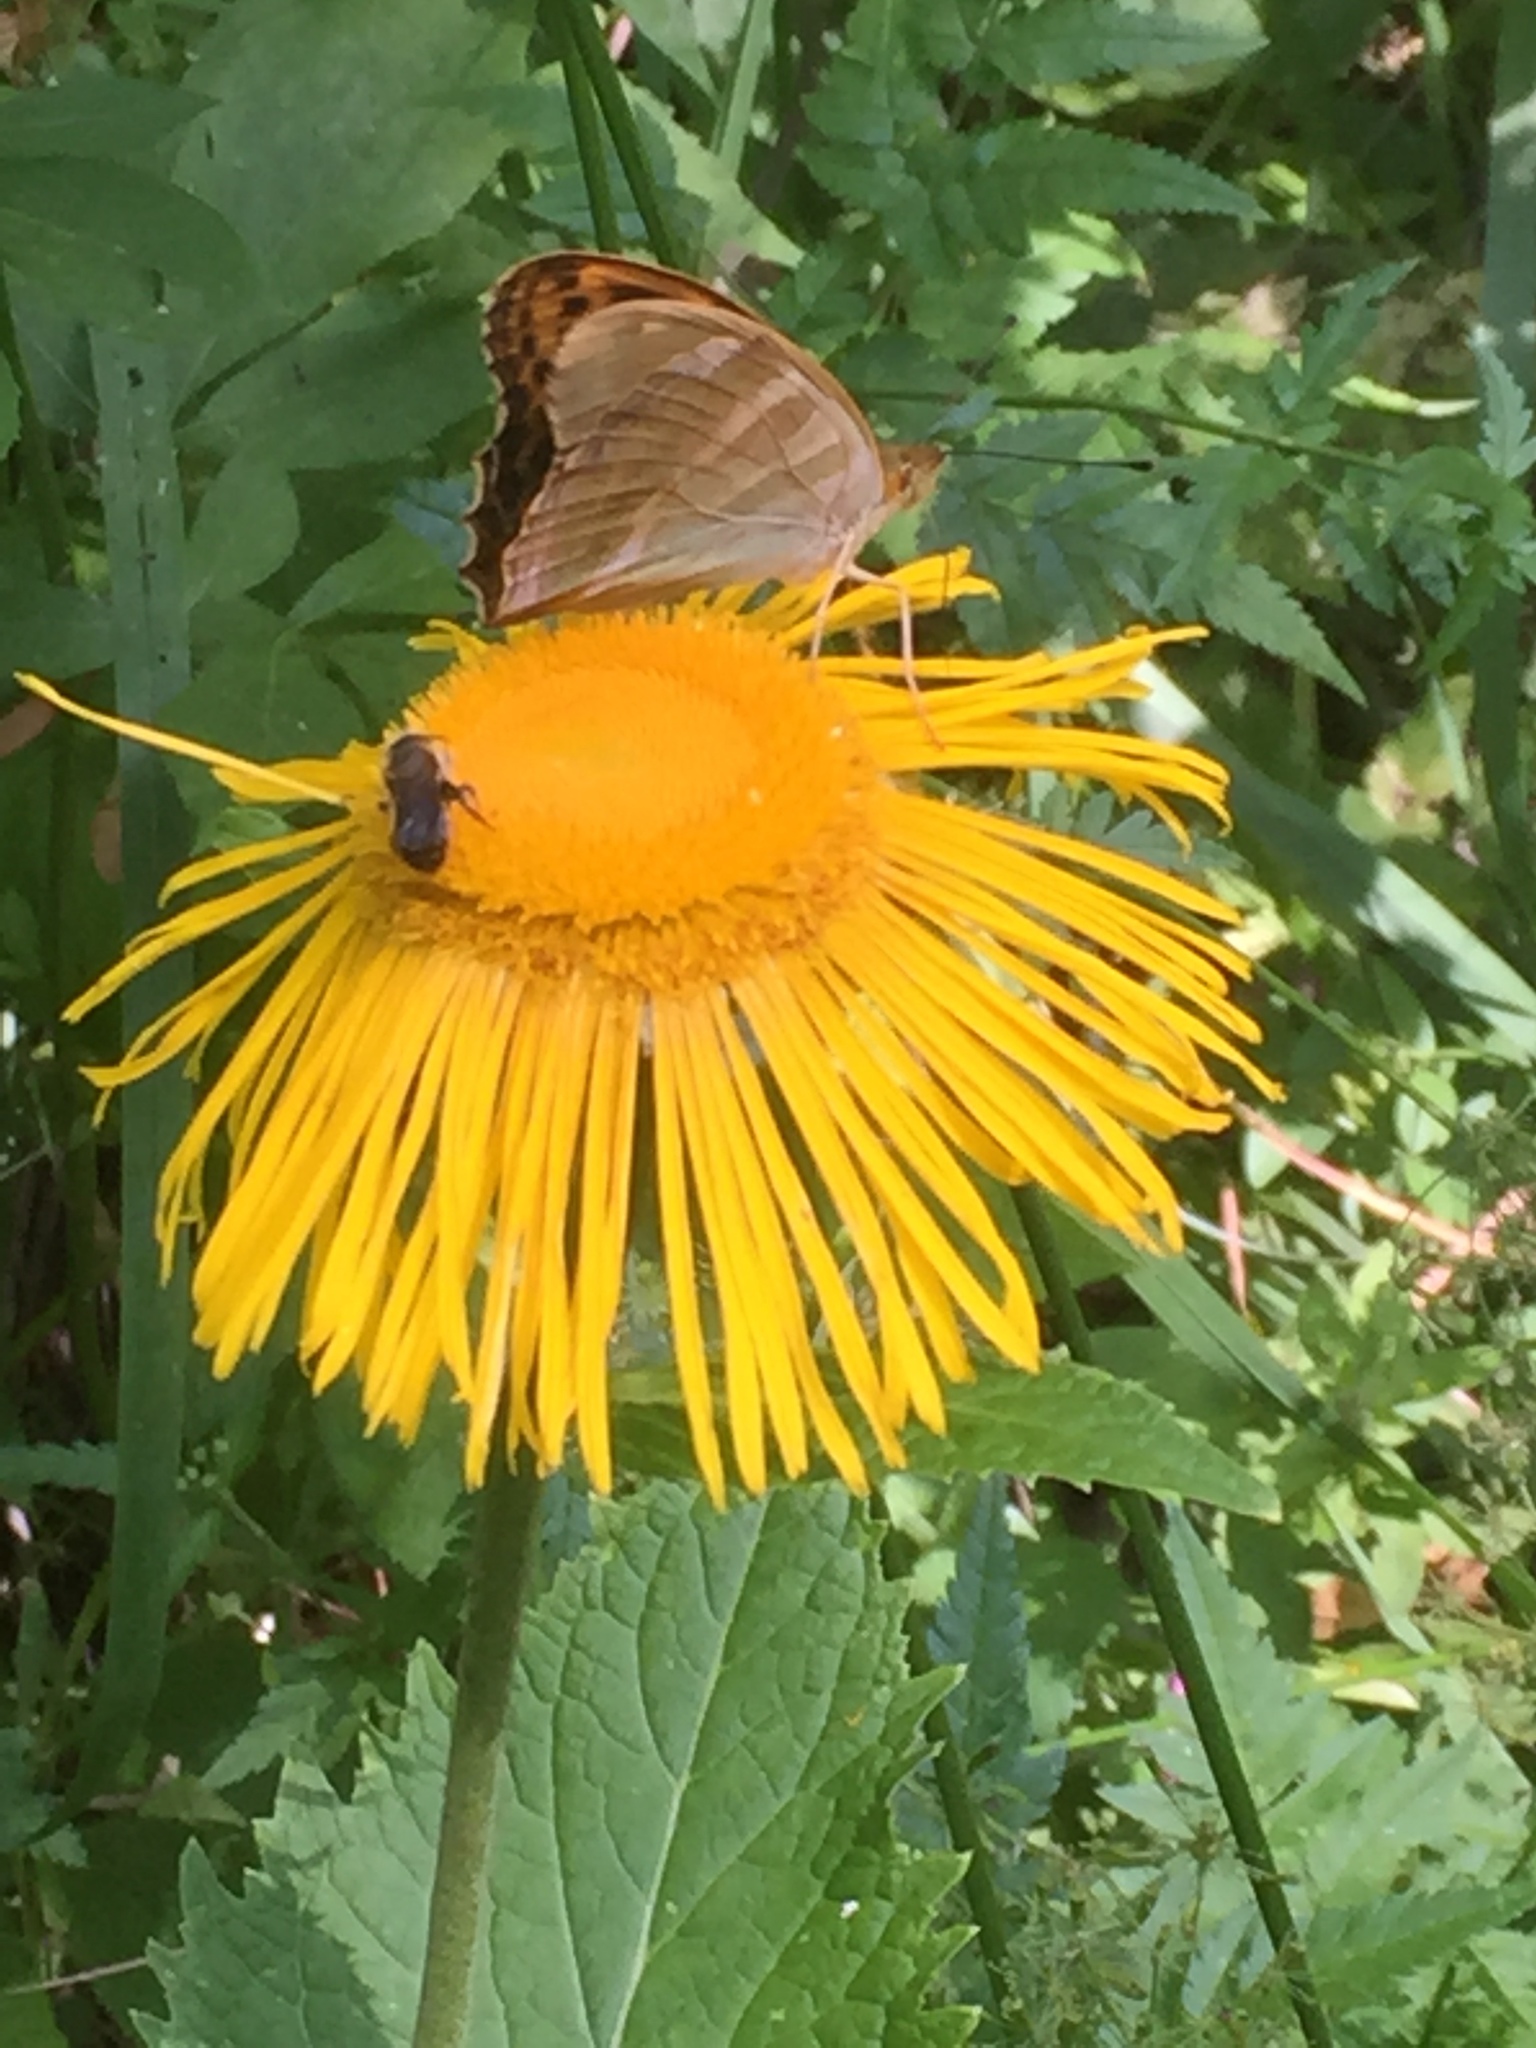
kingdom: Animalia
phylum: Arthropoda
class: Insecta
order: Lepidoptera
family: Nymphalidae
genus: Argynnis
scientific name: Argynnis paphia
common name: Silver-washed fritillary
